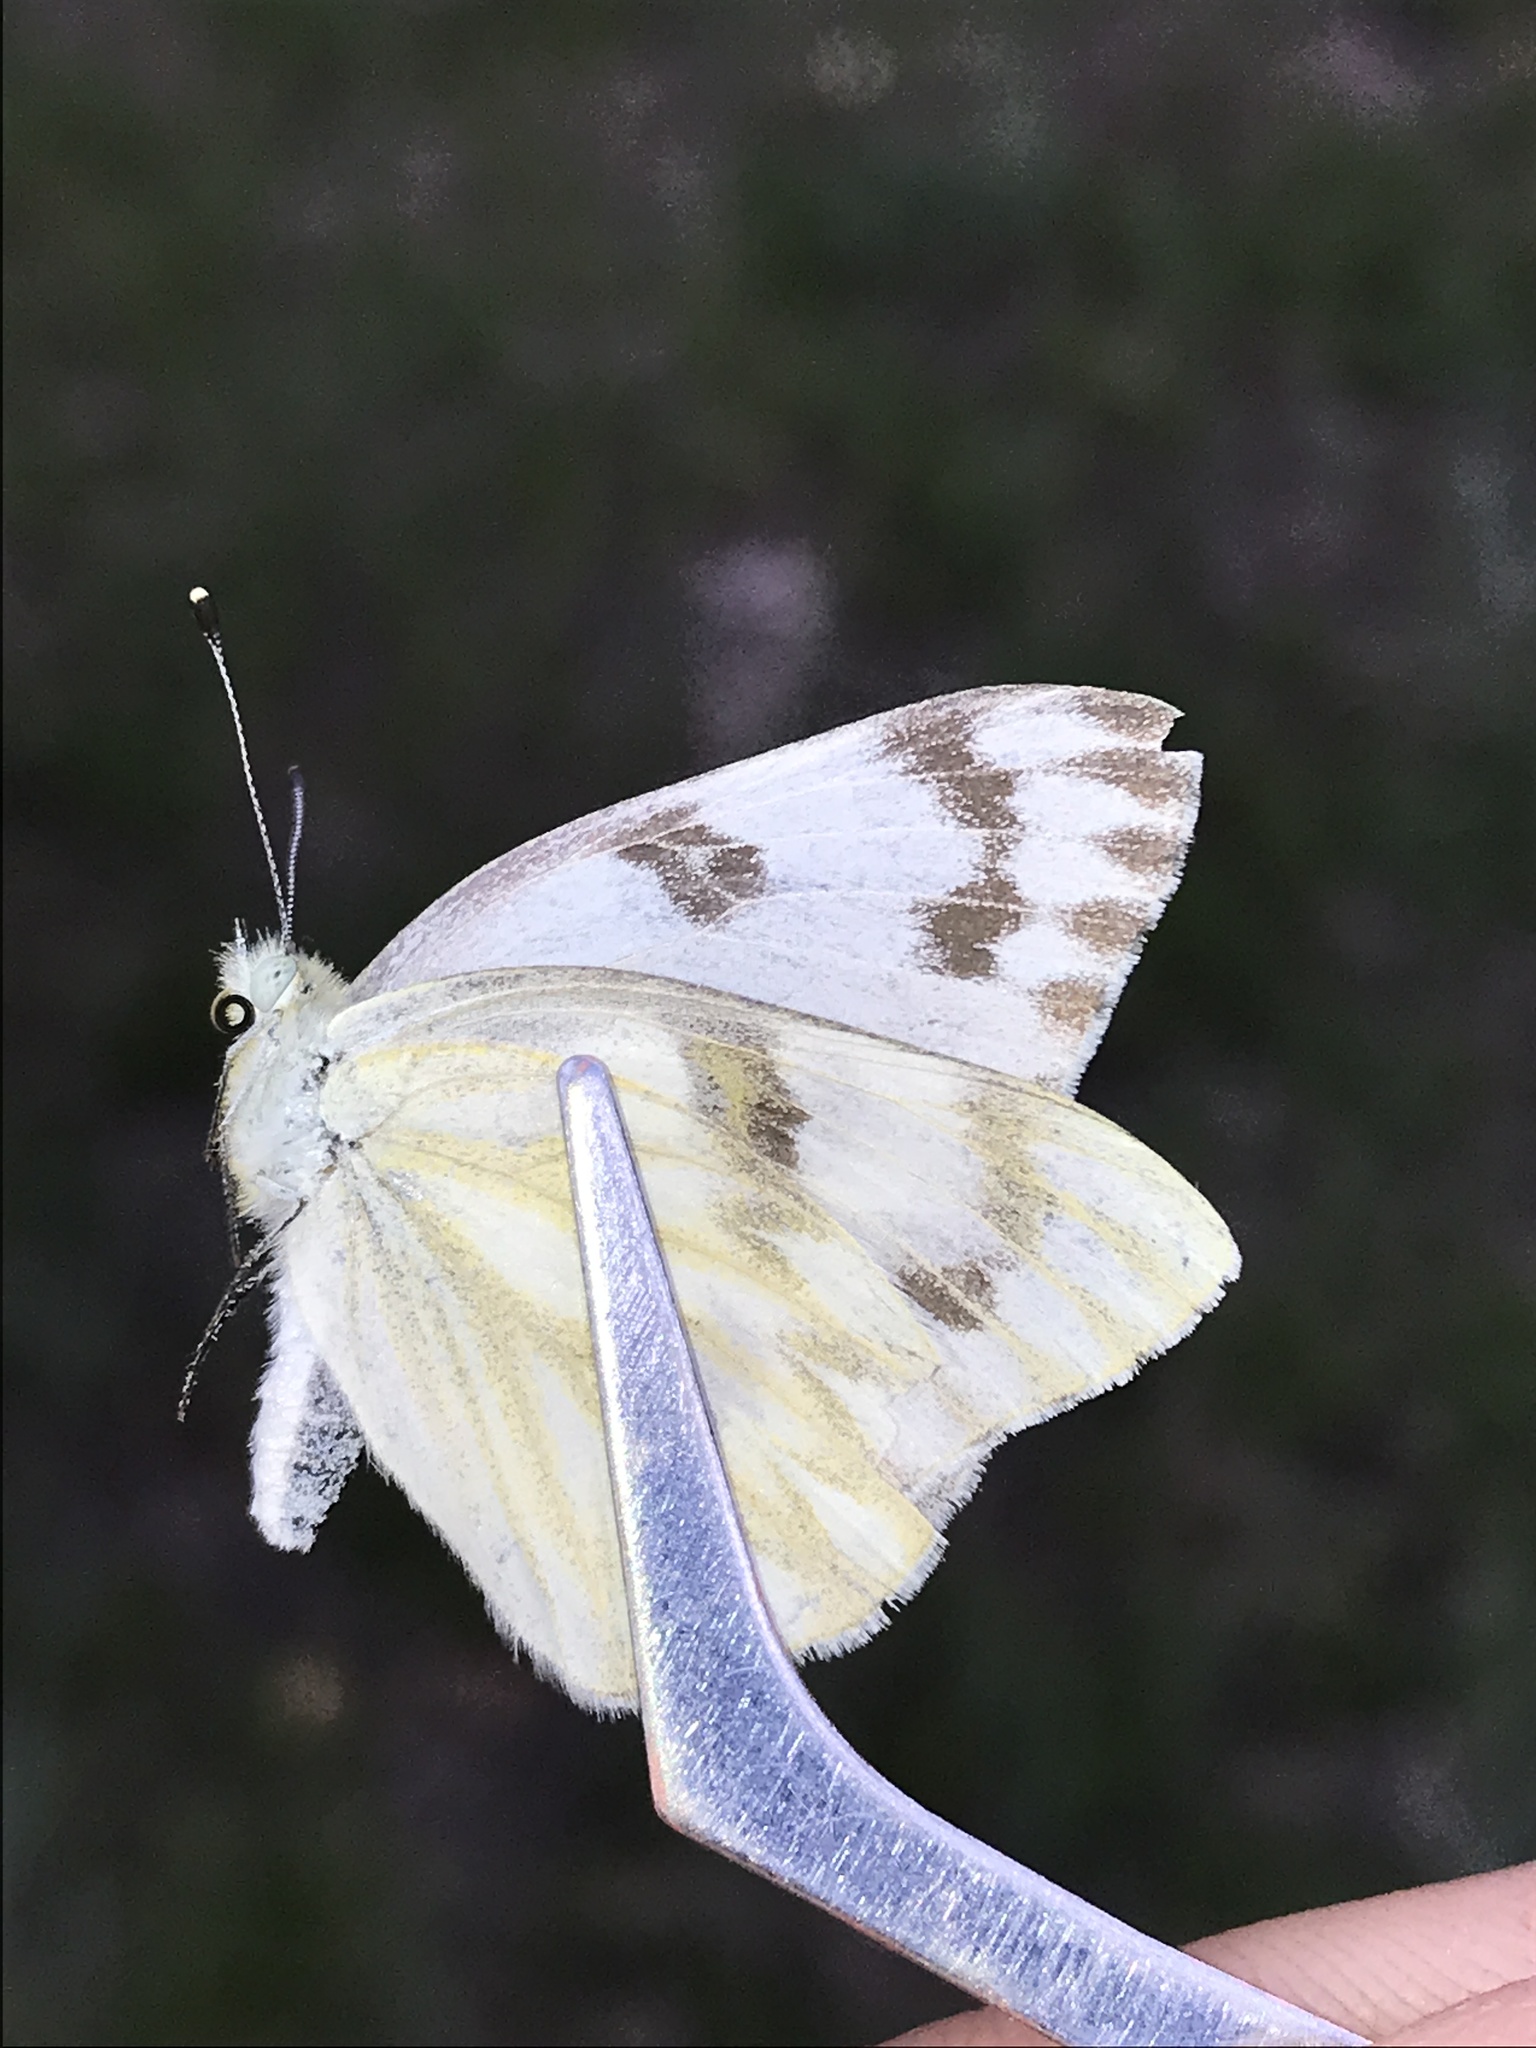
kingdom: Animalia
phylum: Arthropoda
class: Insecta
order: Lepidoptera
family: Pieridae
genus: Pontia
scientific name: Pontia protodice
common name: Checkered white
